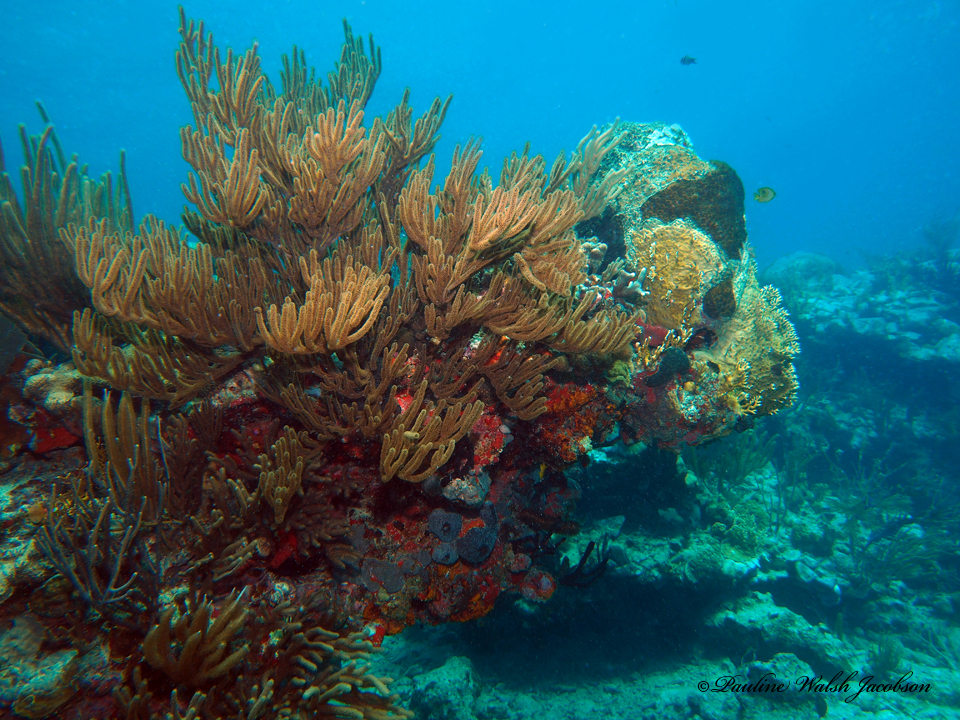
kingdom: Animalia
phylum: Cnidaria
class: Anthozoa
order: Malacalcyonacea
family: Plexauridae
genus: Plexaura
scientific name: Plexaura homomalla
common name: Black sea rod
